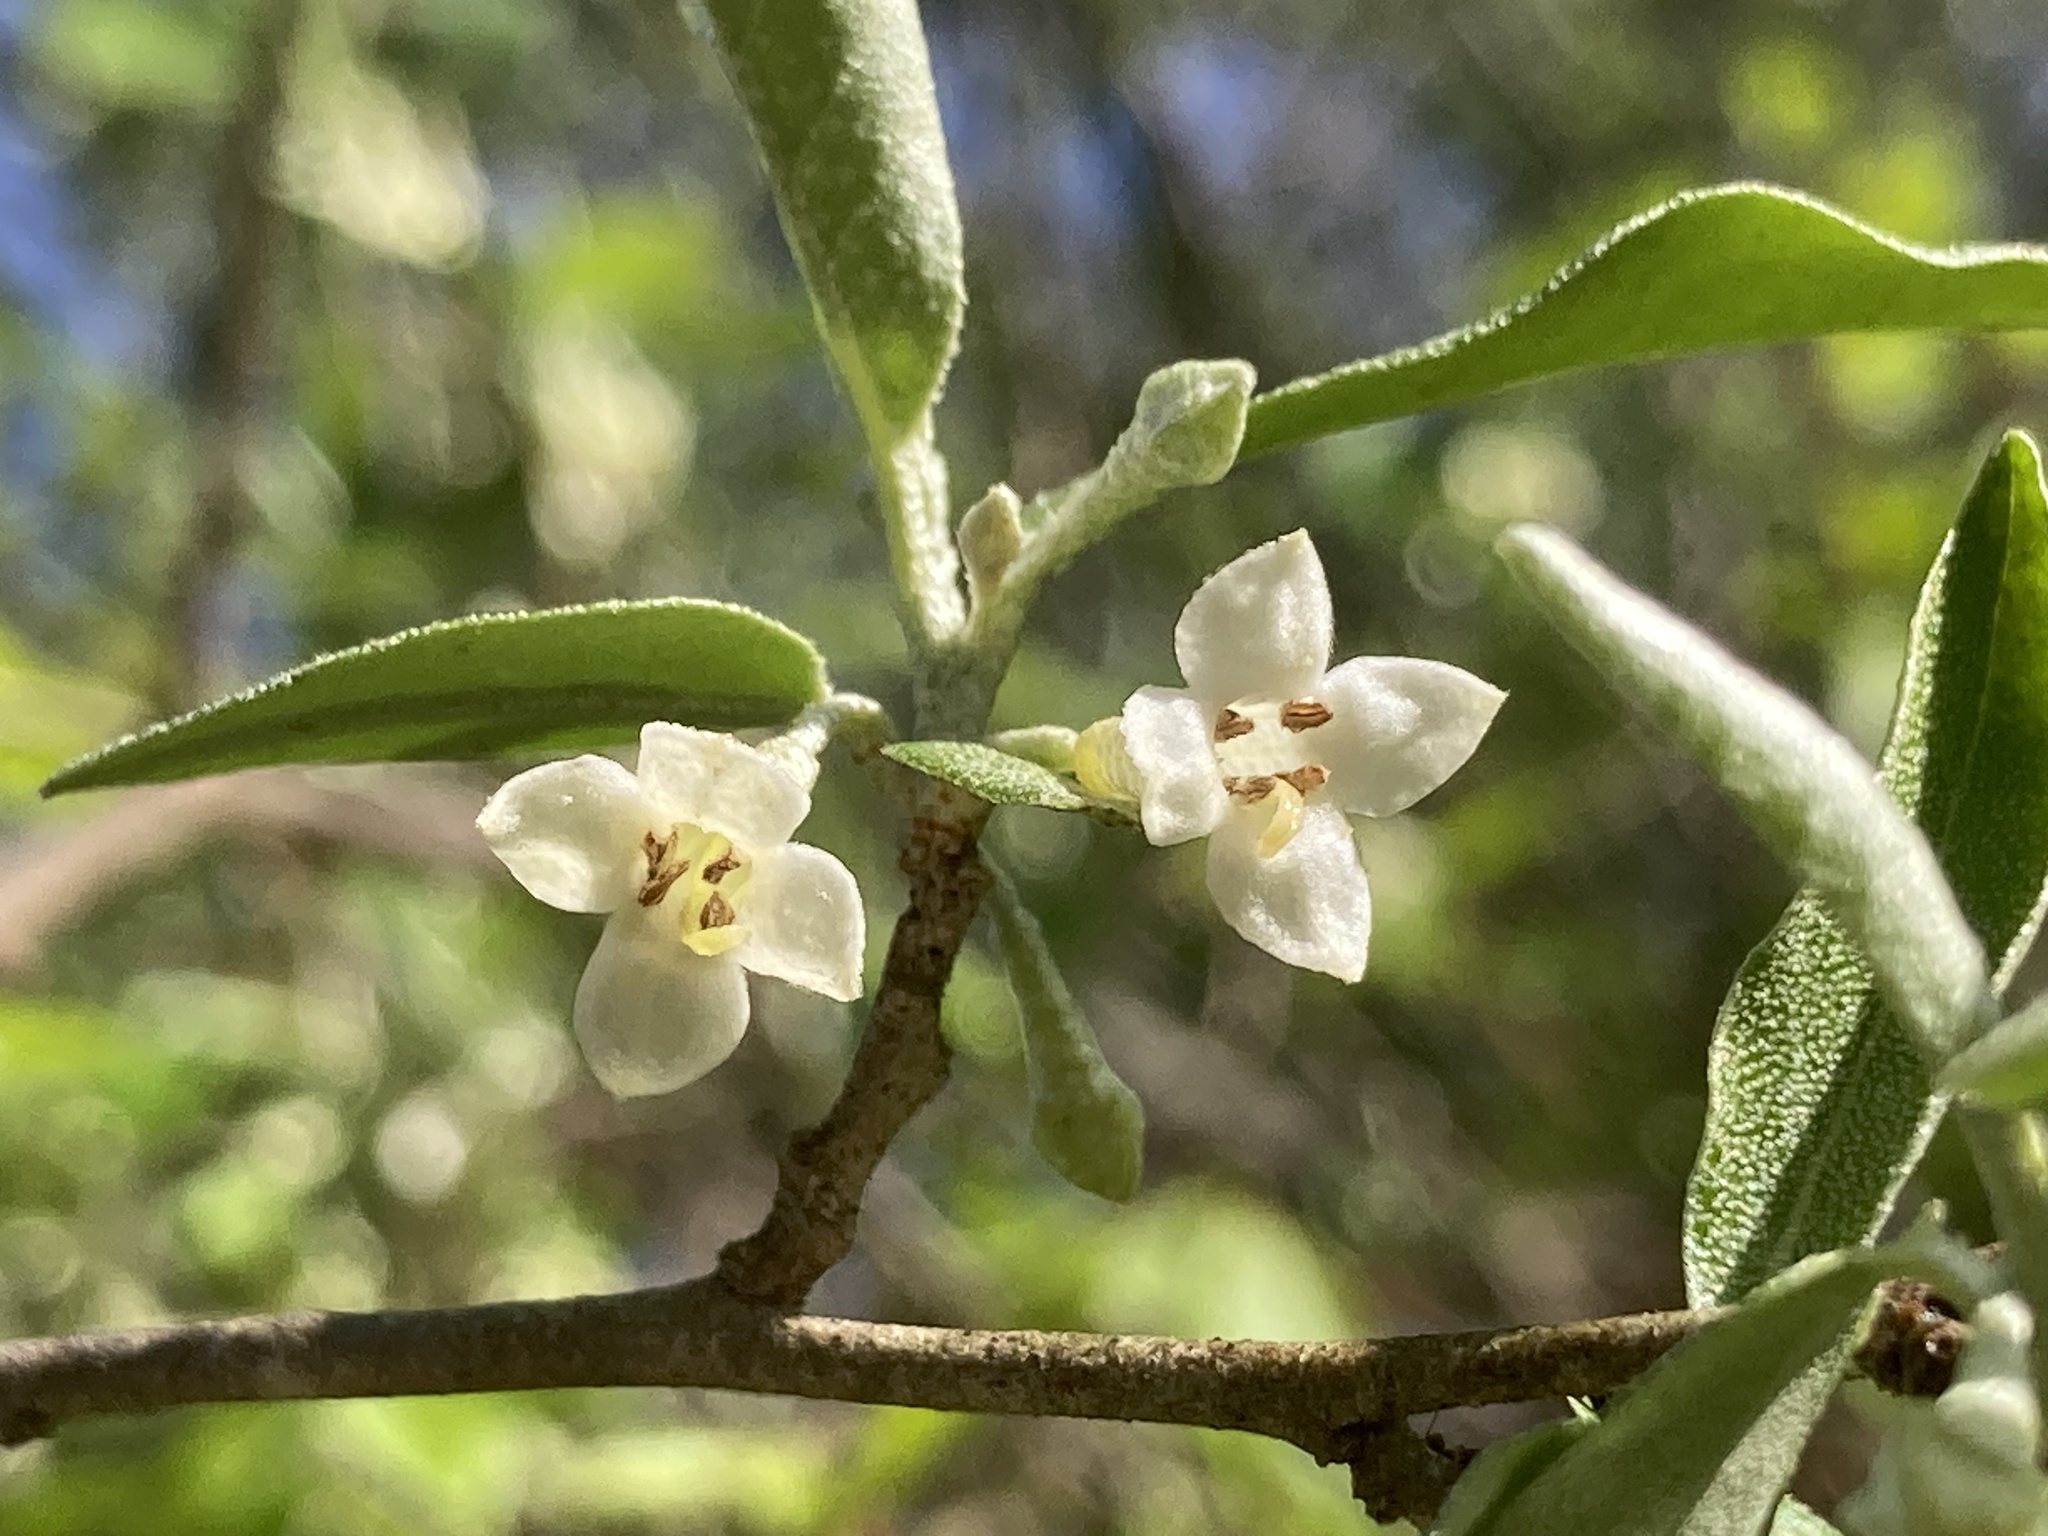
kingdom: Plantae
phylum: Tracheophyta
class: Magnoliopsida
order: Rosales
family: Elaeagnaceae
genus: Elaeagnus
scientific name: Elaeagnus umbellata
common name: Autumn olive
